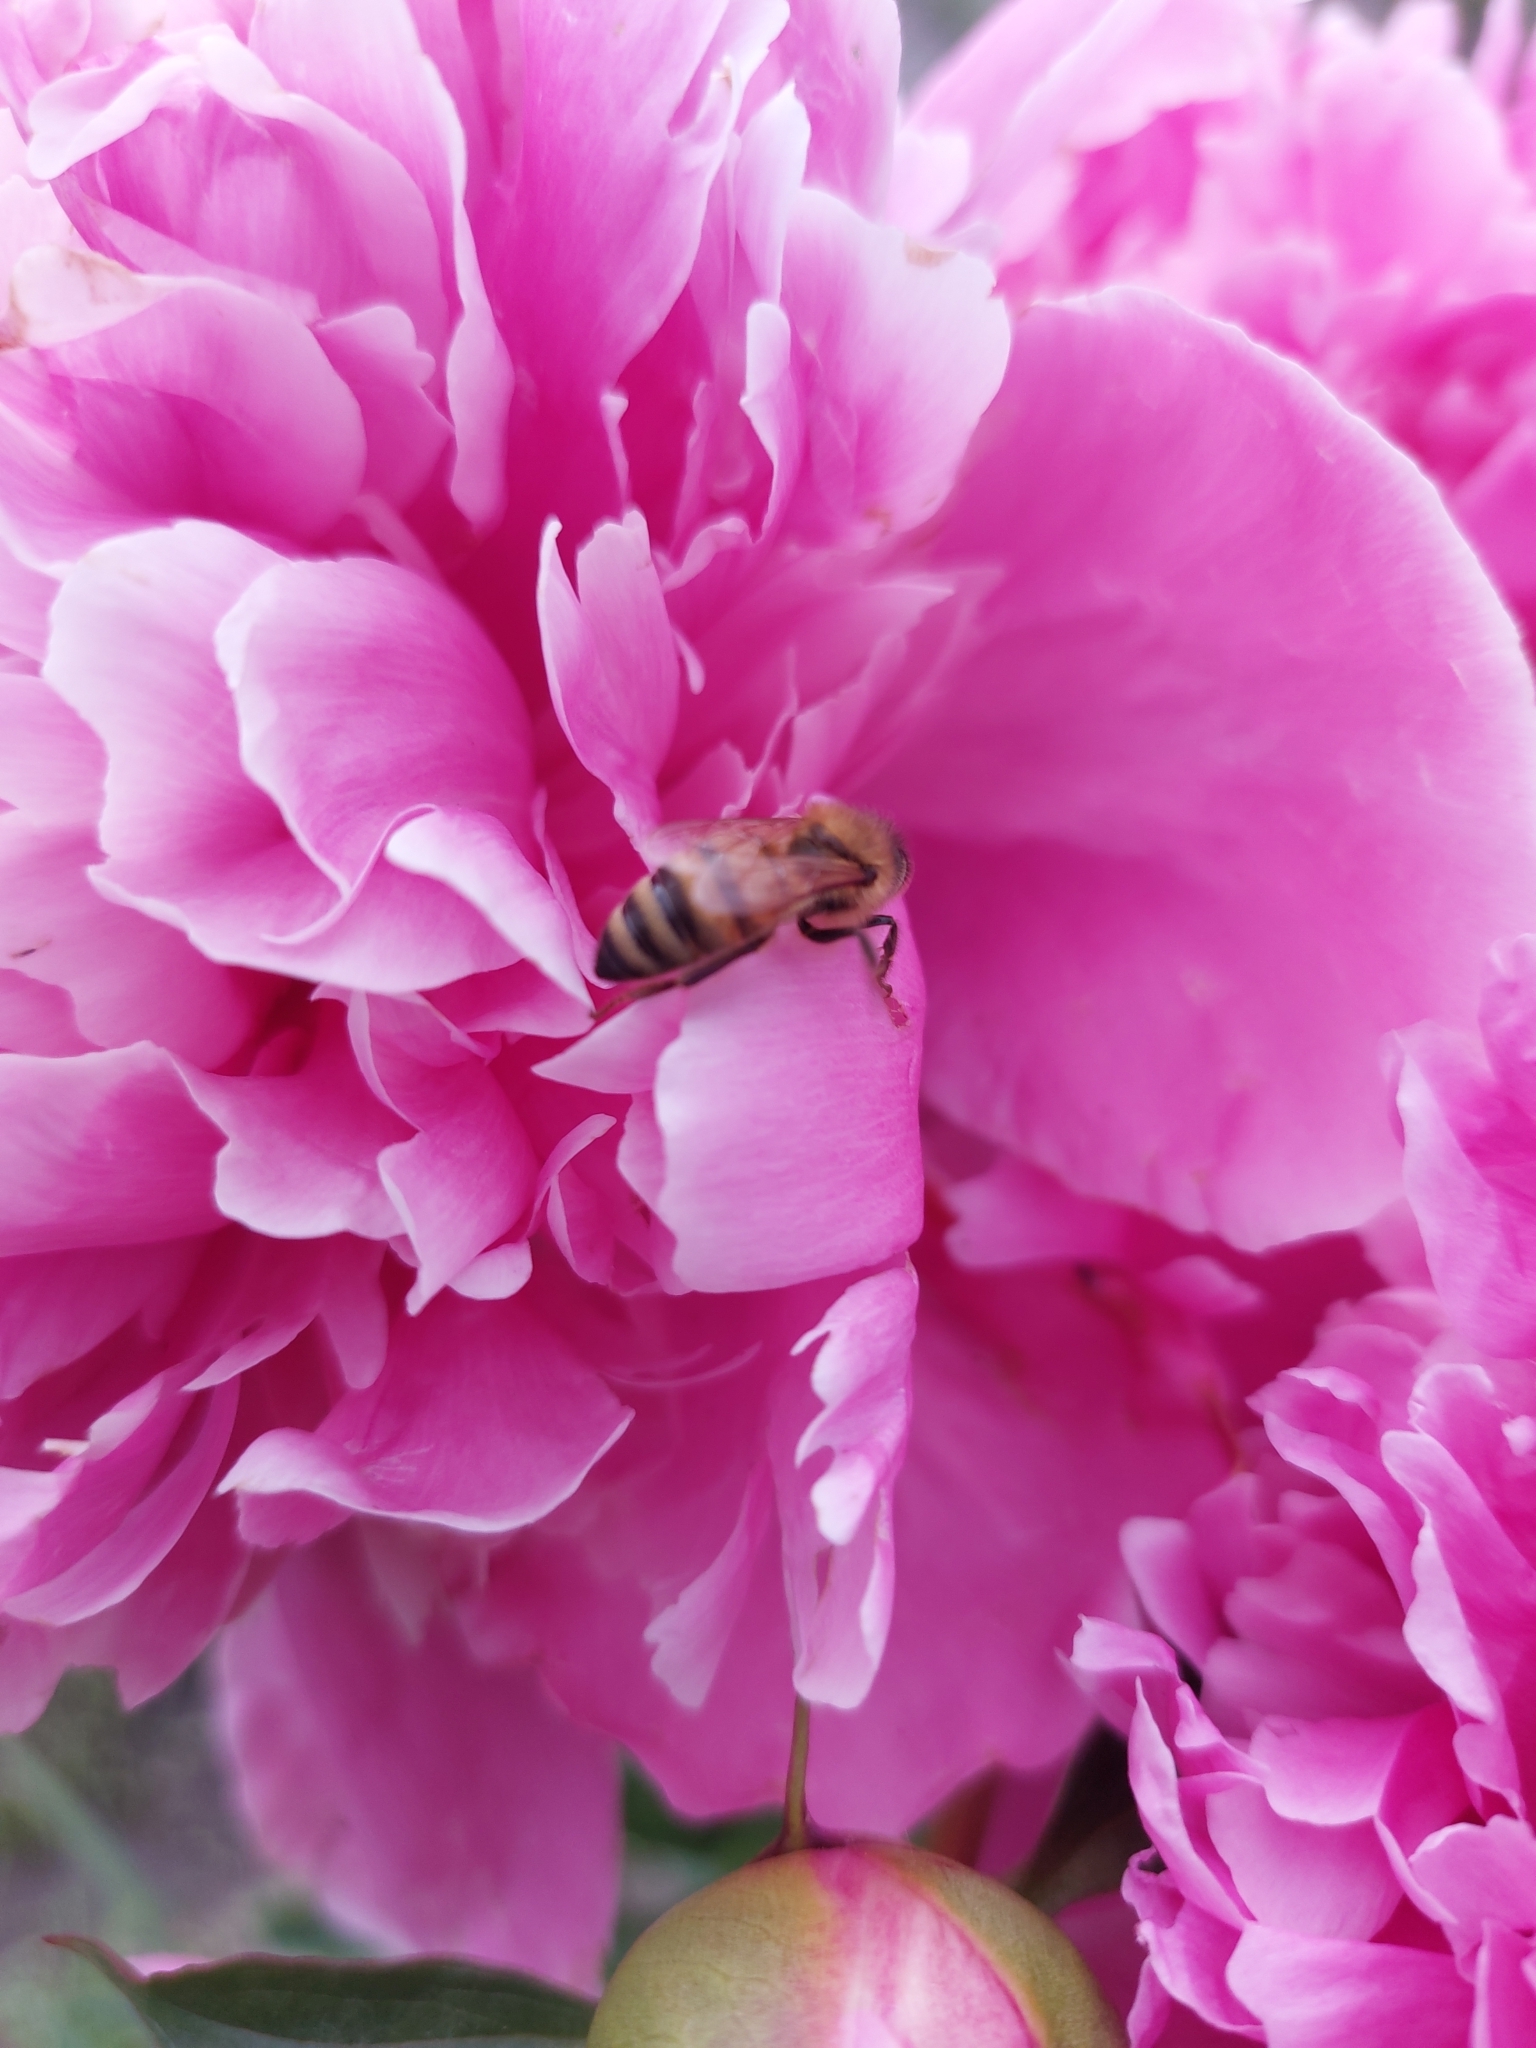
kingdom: Animalia
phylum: Arthropoda
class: Insecta
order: Hymenoptera
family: Apidae
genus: Apis
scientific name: Apis mellifera
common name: Honey bee
